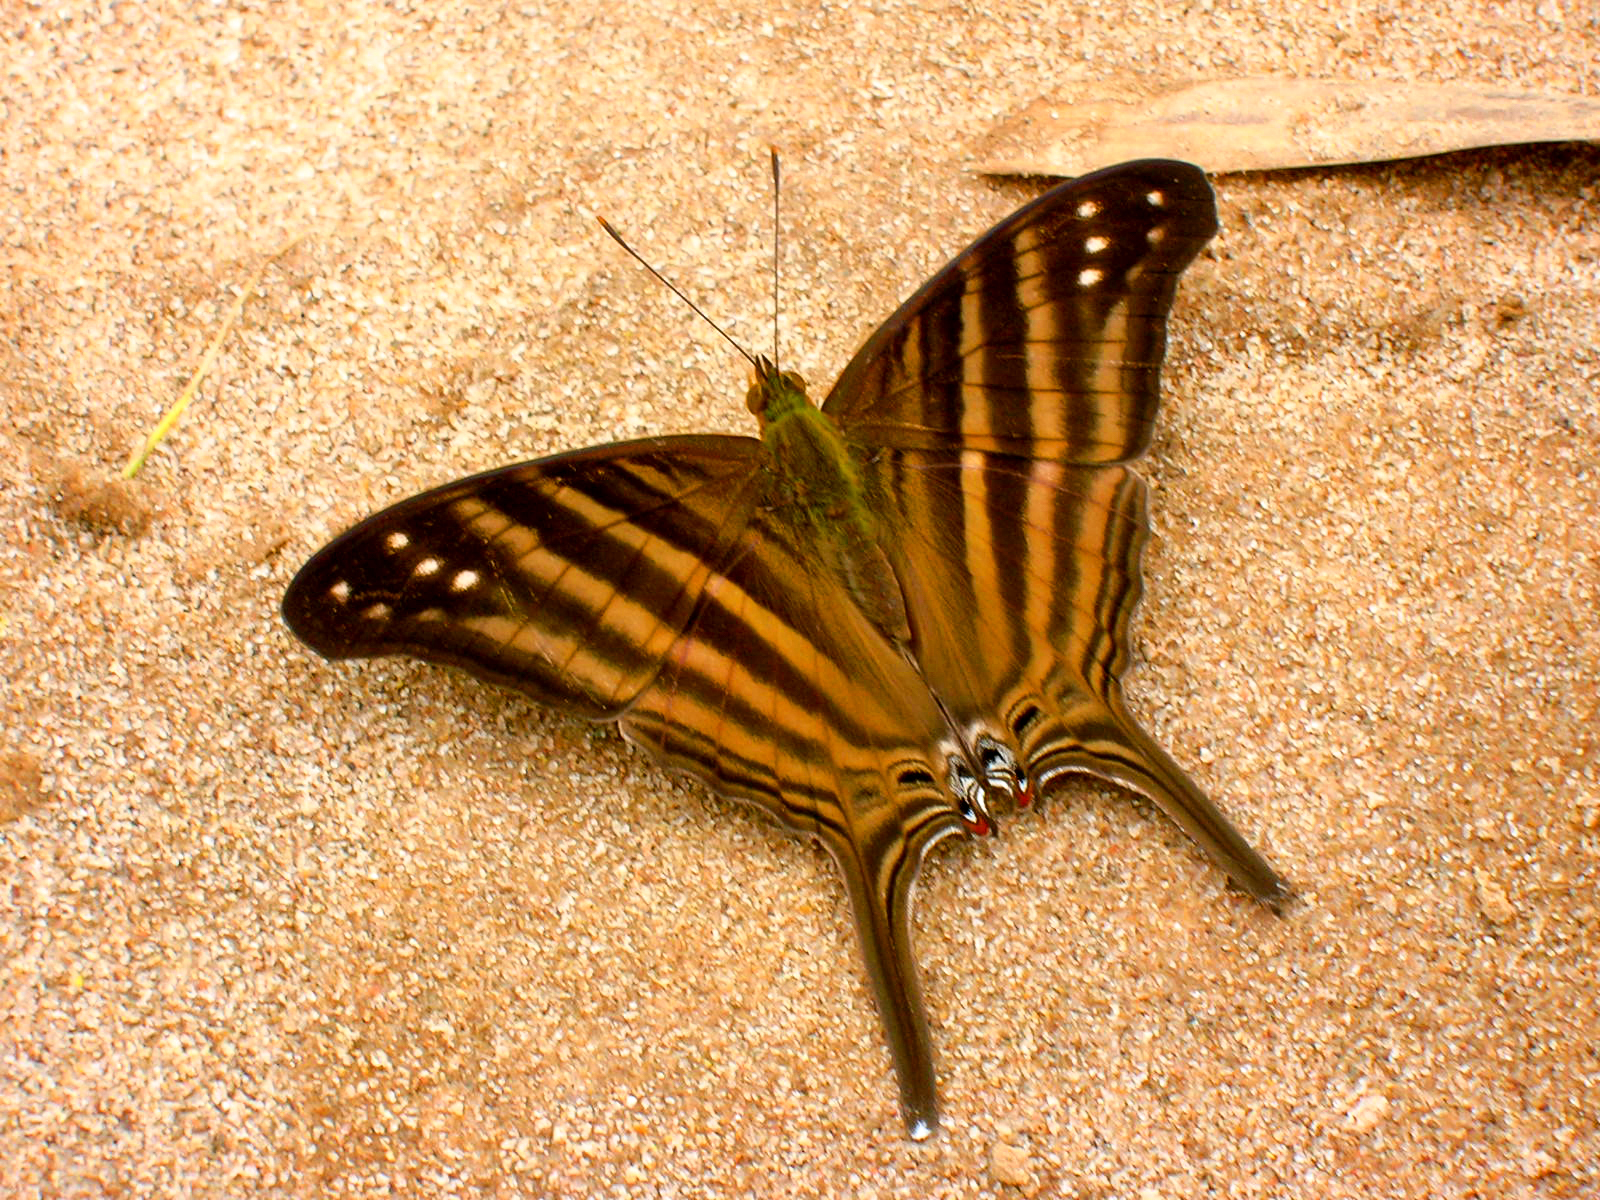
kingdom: Animalia
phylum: Arthropoda
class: Insecta
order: Lepidoptera
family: Nymphalidae
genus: Marpesia
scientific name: Marpesia chiron
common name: Many-banded daggerwing
